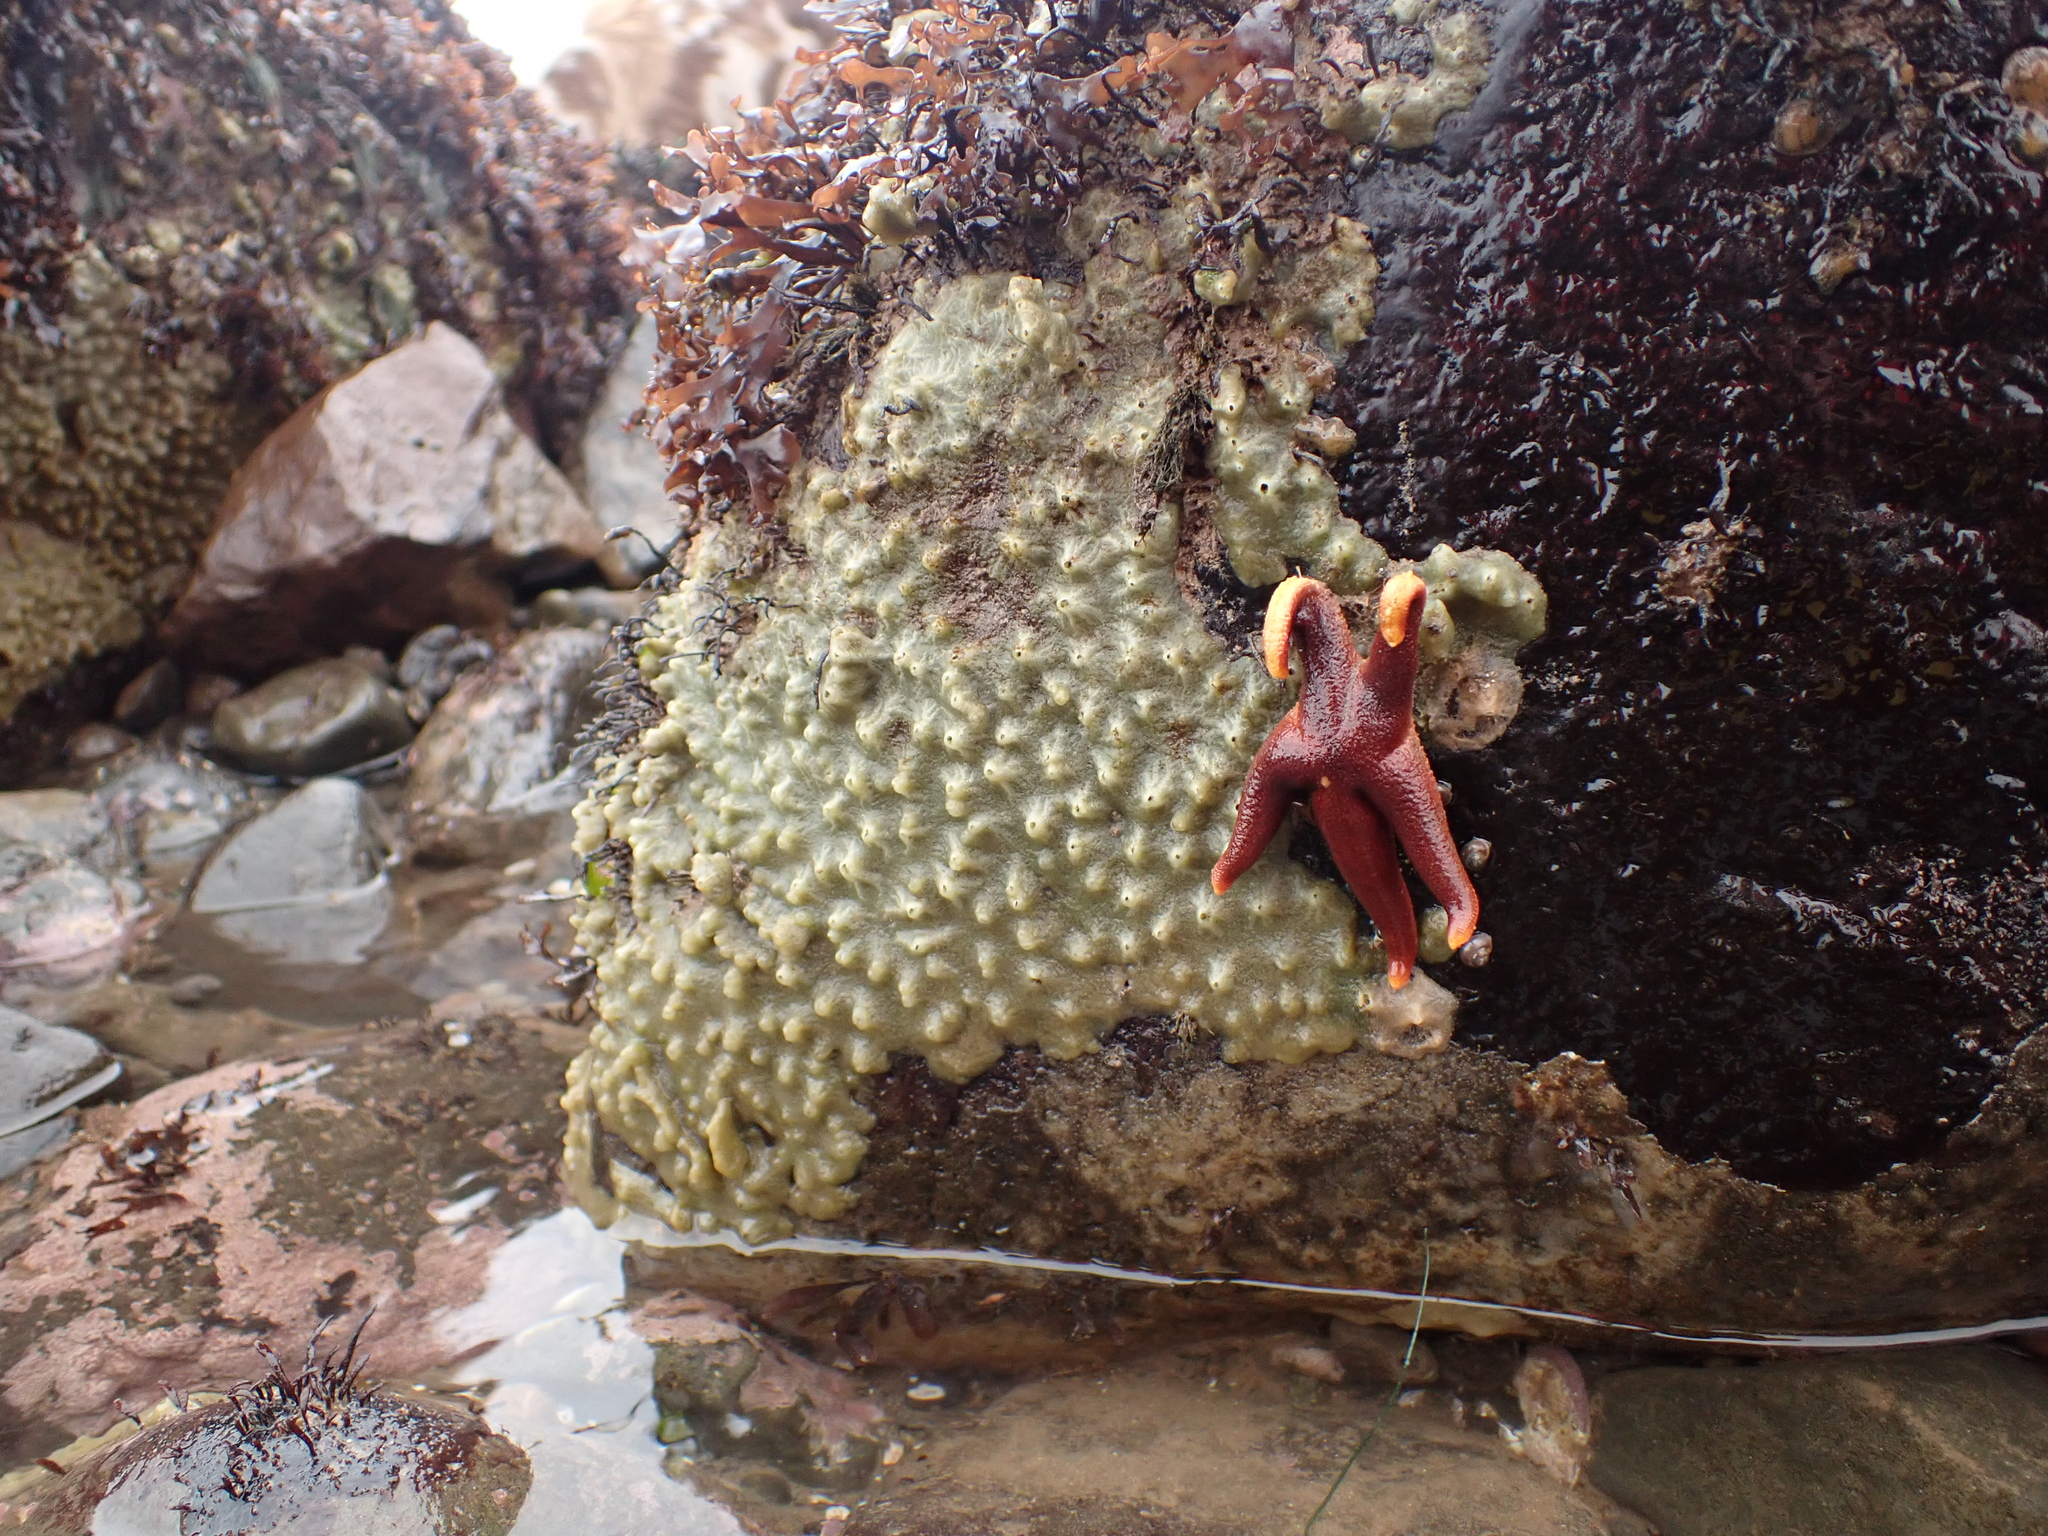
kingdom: Animalia
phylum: Echinodermata
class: Asteroidea
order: Spinulosida
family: Echinasteridae
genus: Henricia
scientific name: Henricia sanguinolenta
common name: Blood star
